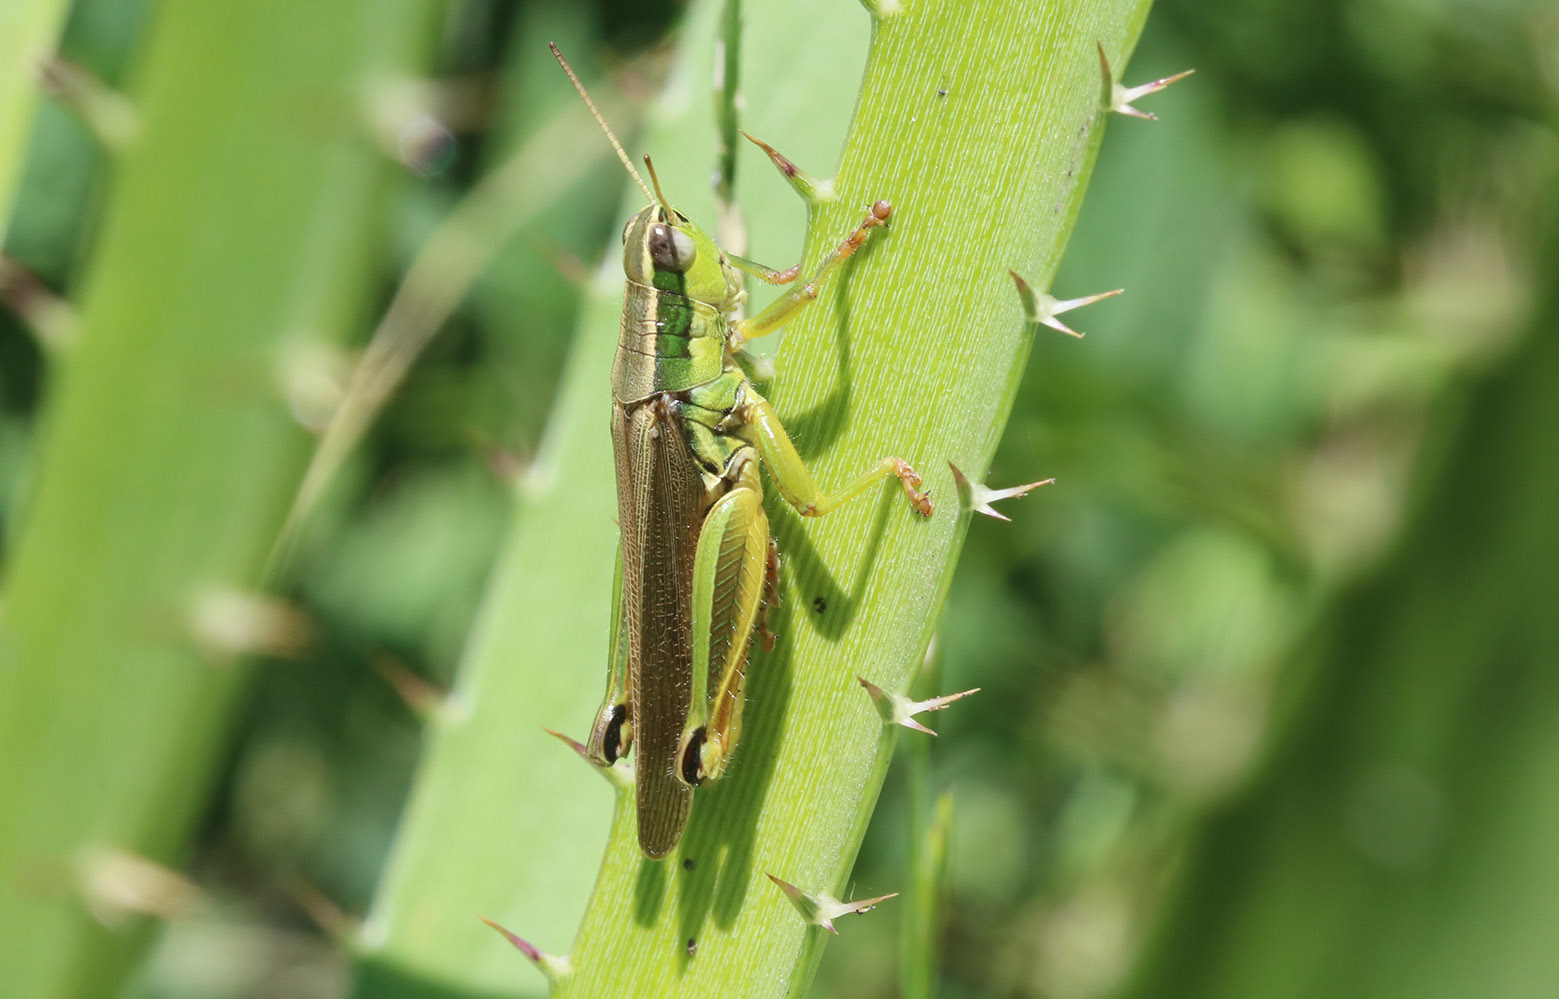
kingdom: Animalia
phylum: Arthropoda
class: Insecta
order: Orthoptera
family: Acrididae
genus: Scotussa
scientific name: Scotussa cliens
